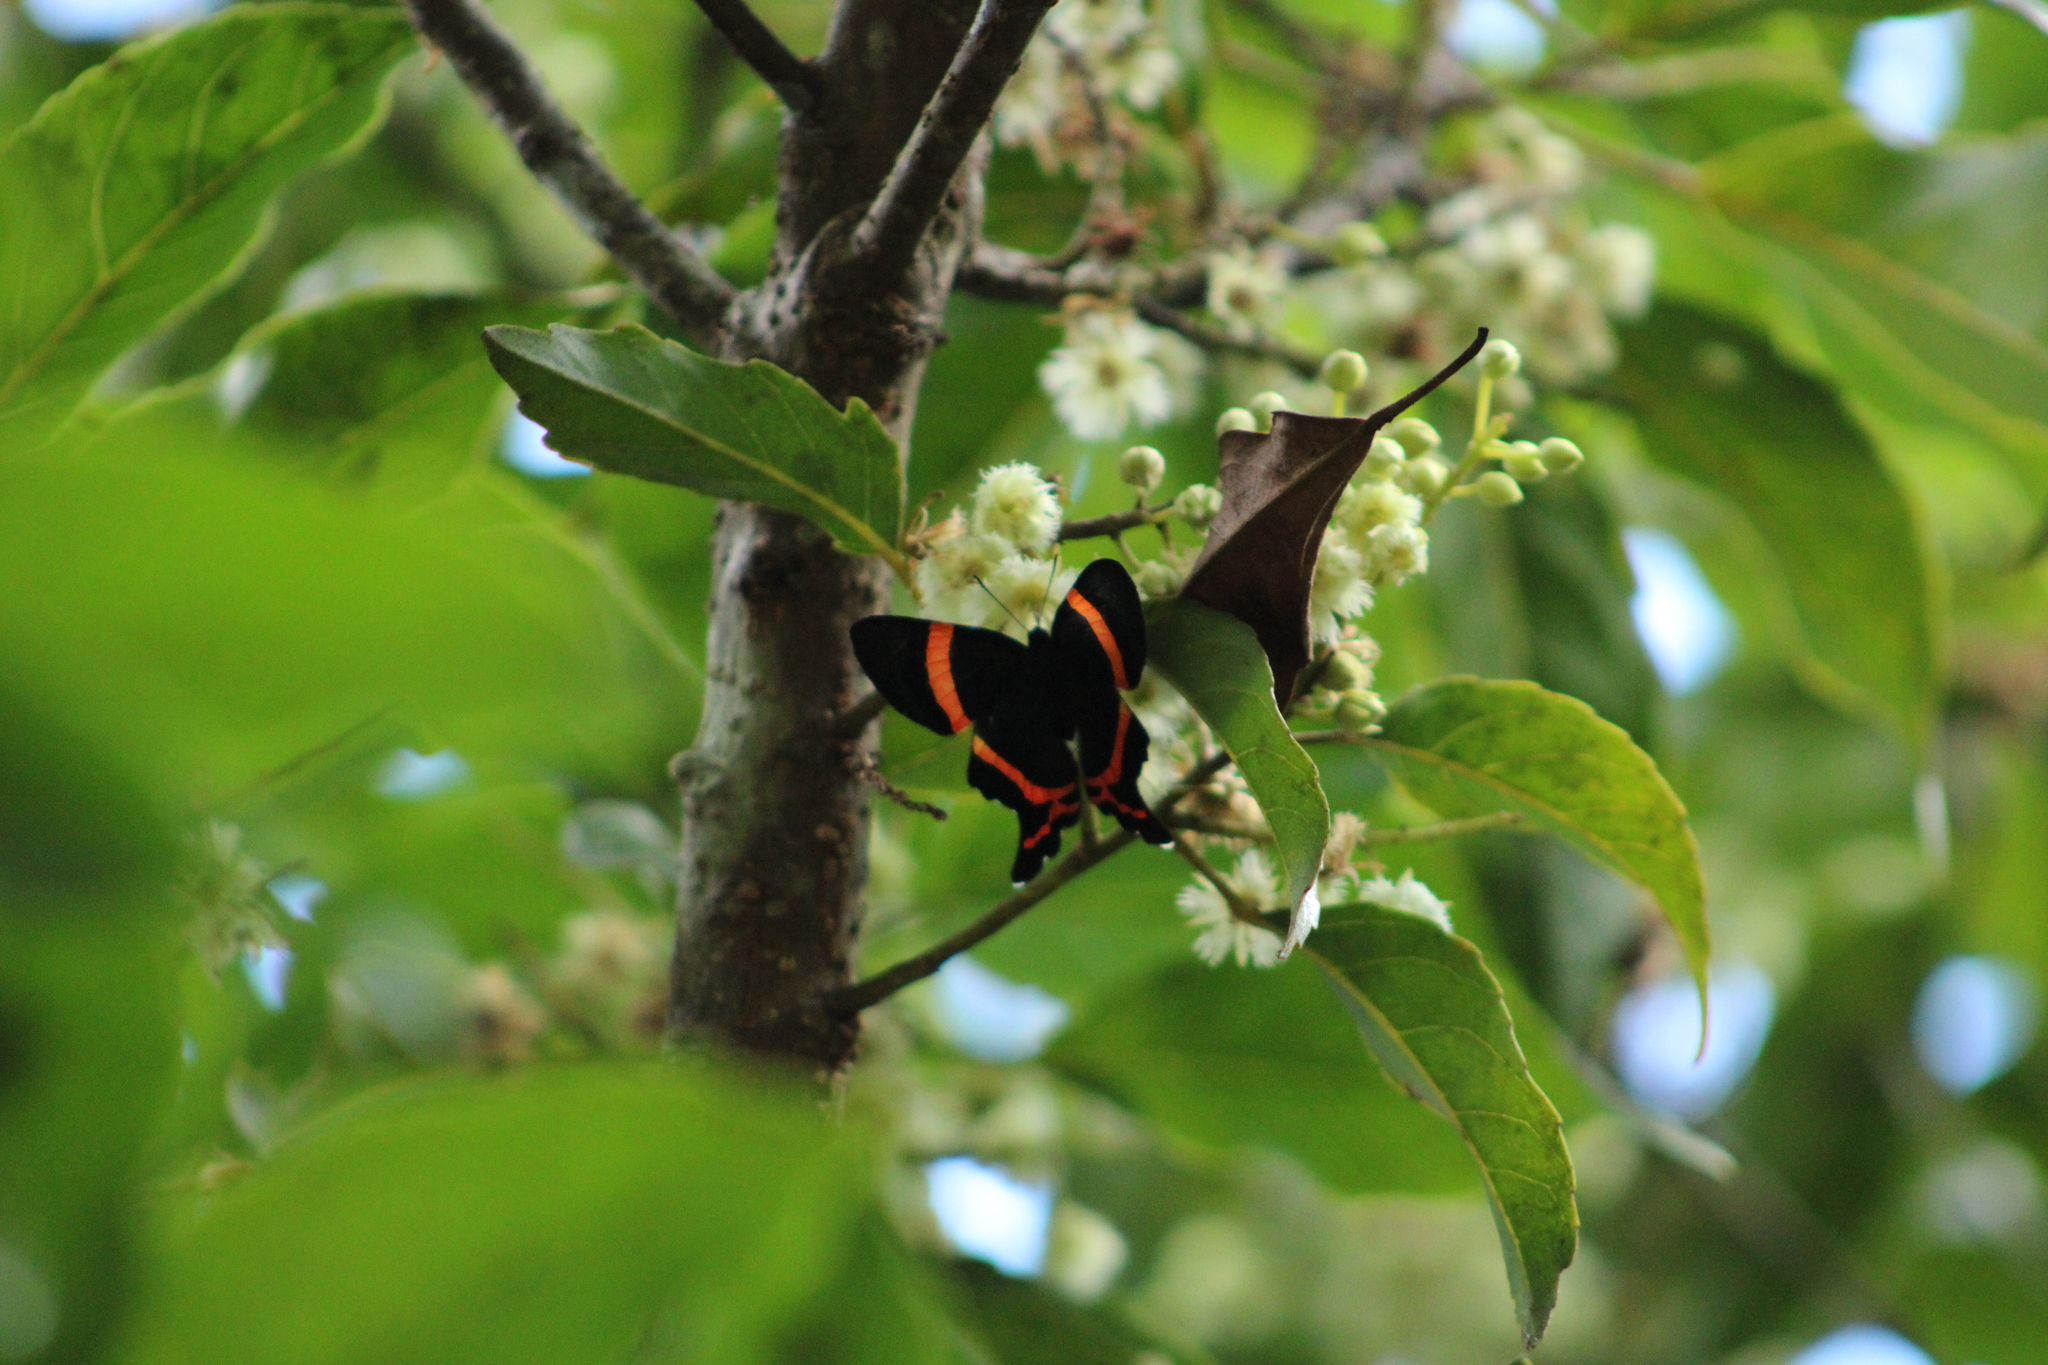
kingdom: Animalia
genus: Ancyluris
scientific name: Ancyluris aulestes
